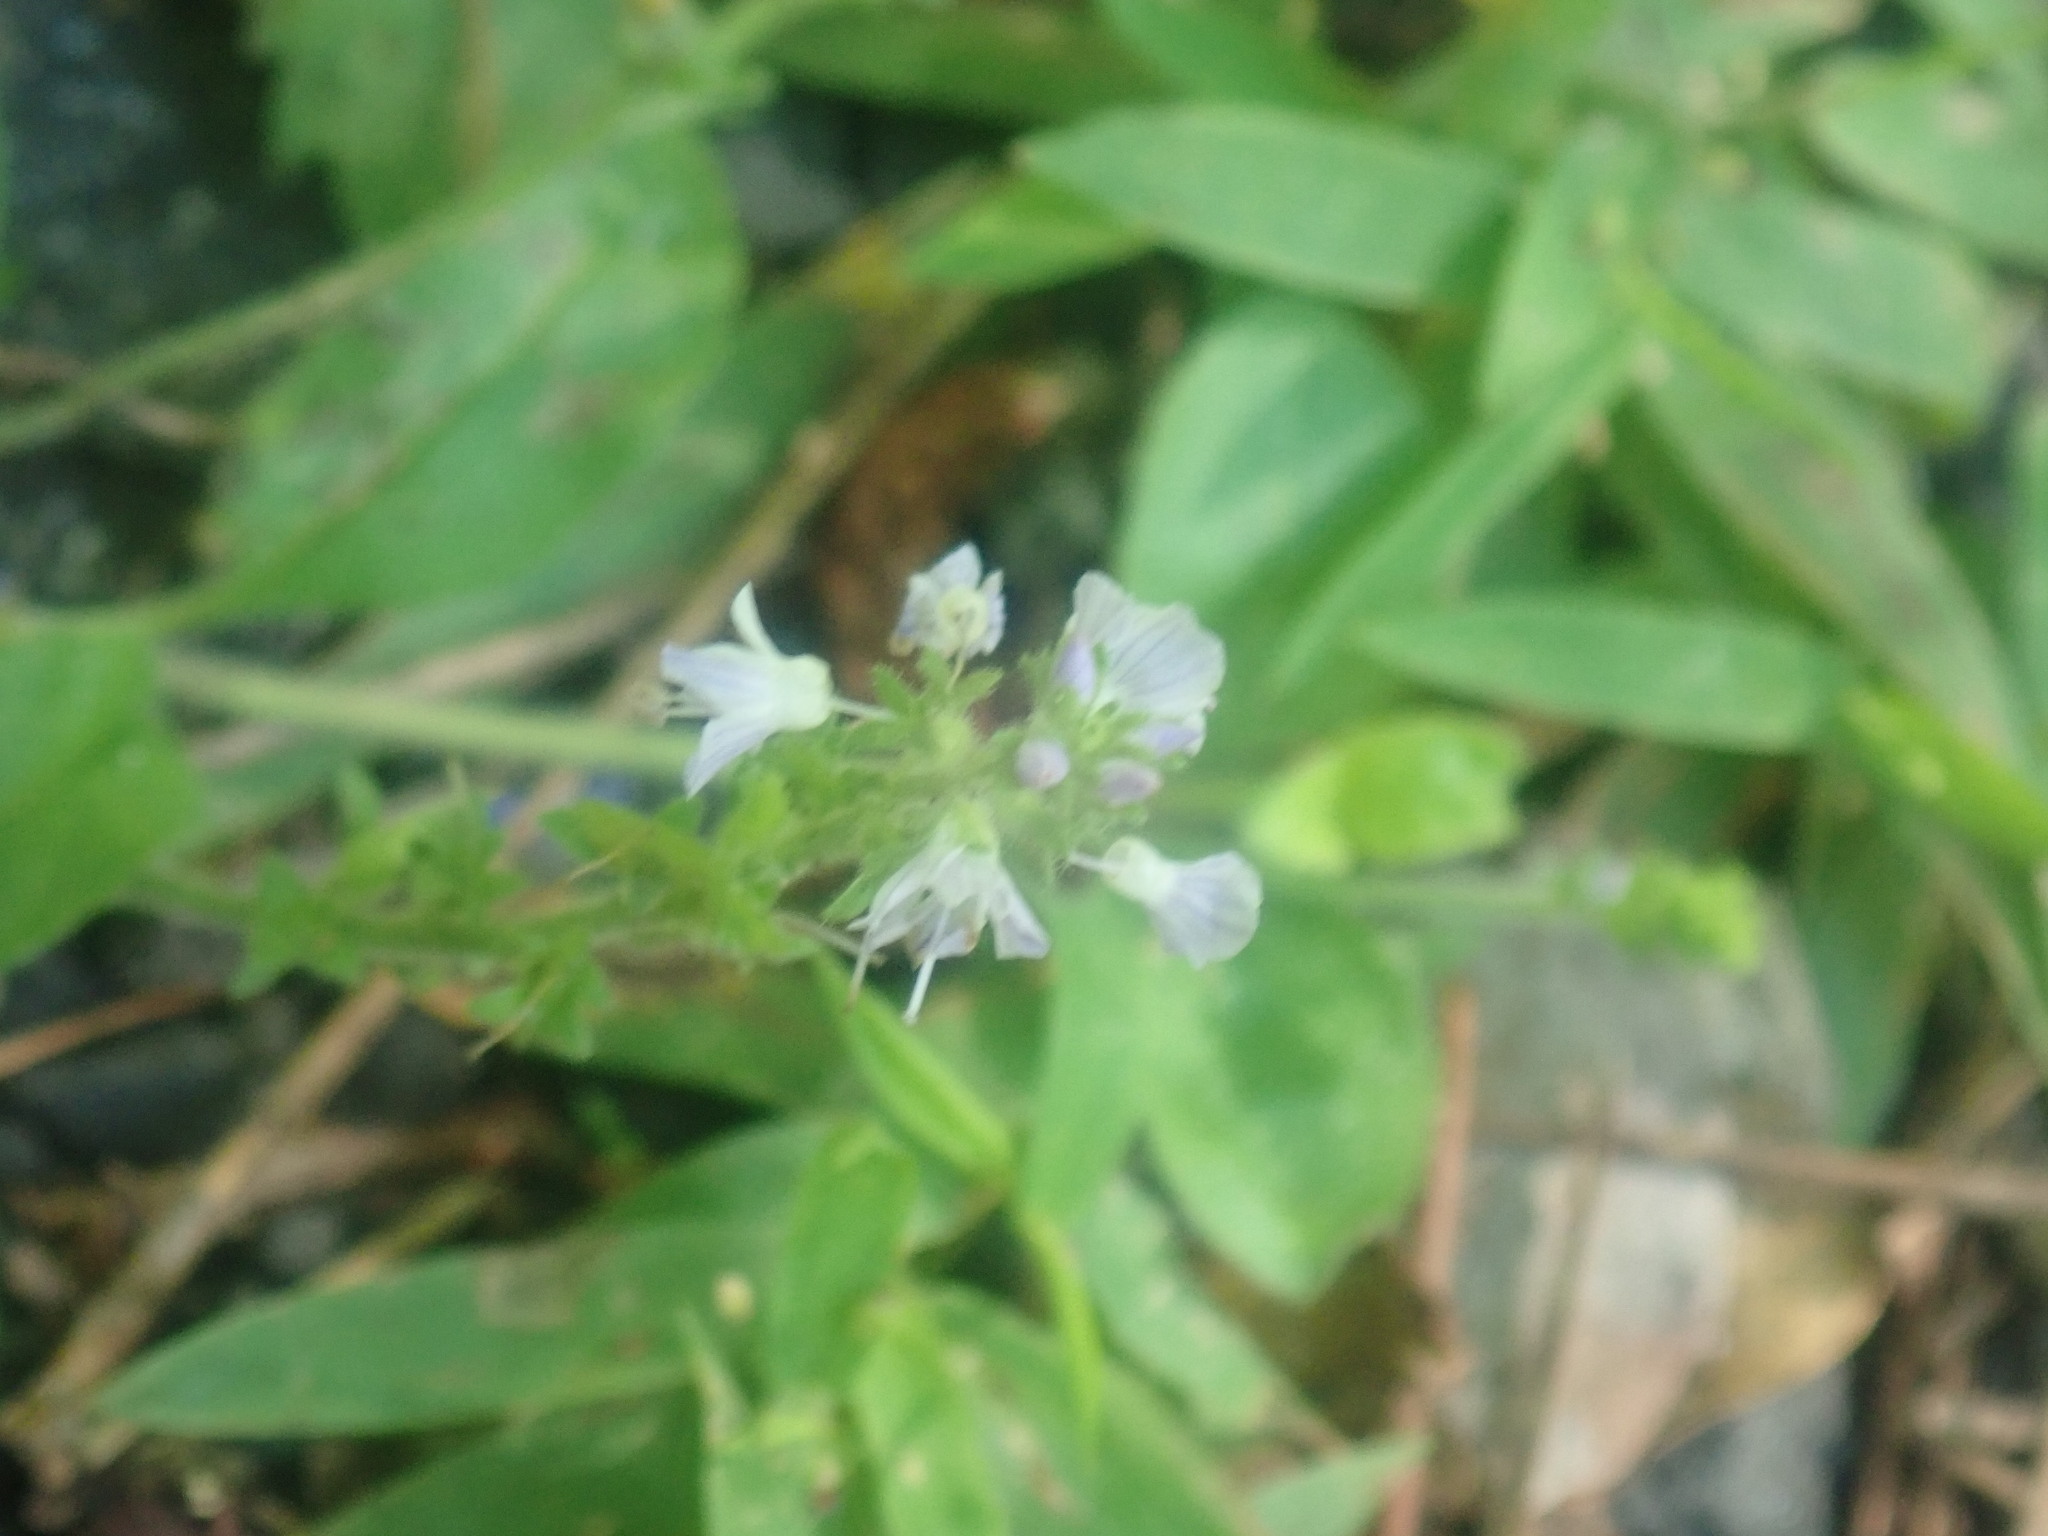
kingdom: Plantae
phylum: Tracheophyta
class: Magnoliopsida
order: Lamiales
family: Plantaginaceae
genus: Veronica
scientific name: Veronica officinalis
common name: Common speedwell
